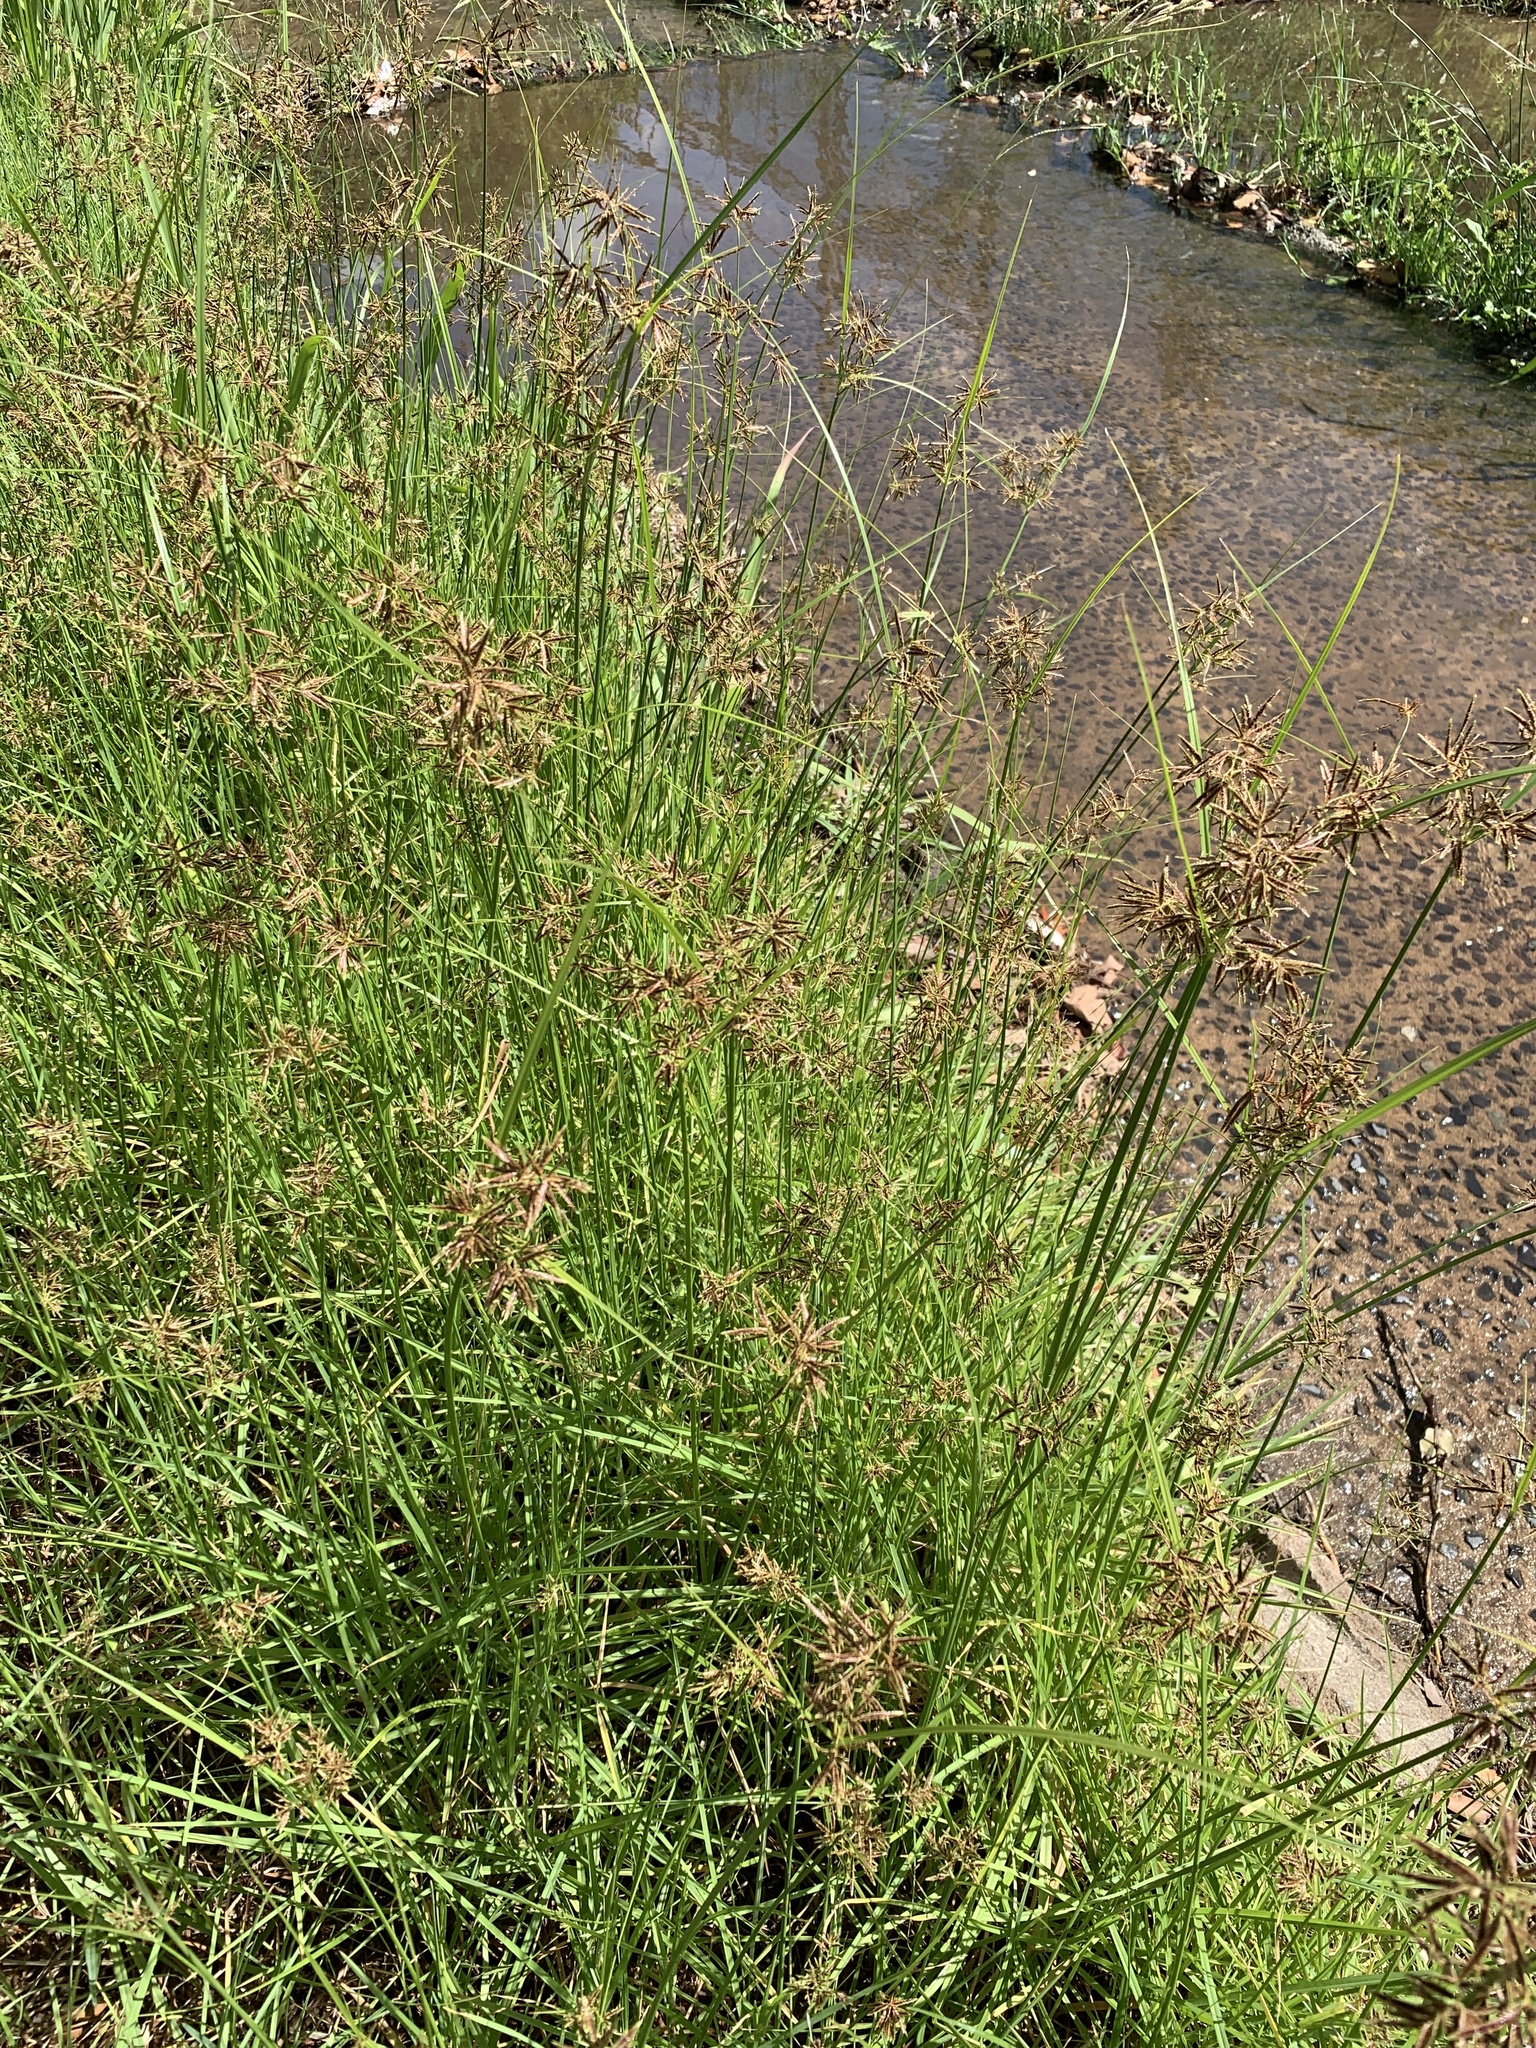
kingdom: Plantae
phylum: Tracheophyta
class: Liliopsida
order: Poales
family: Cyperaceae
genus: Cyperus
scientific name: Cyperus longus
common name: Galingale
